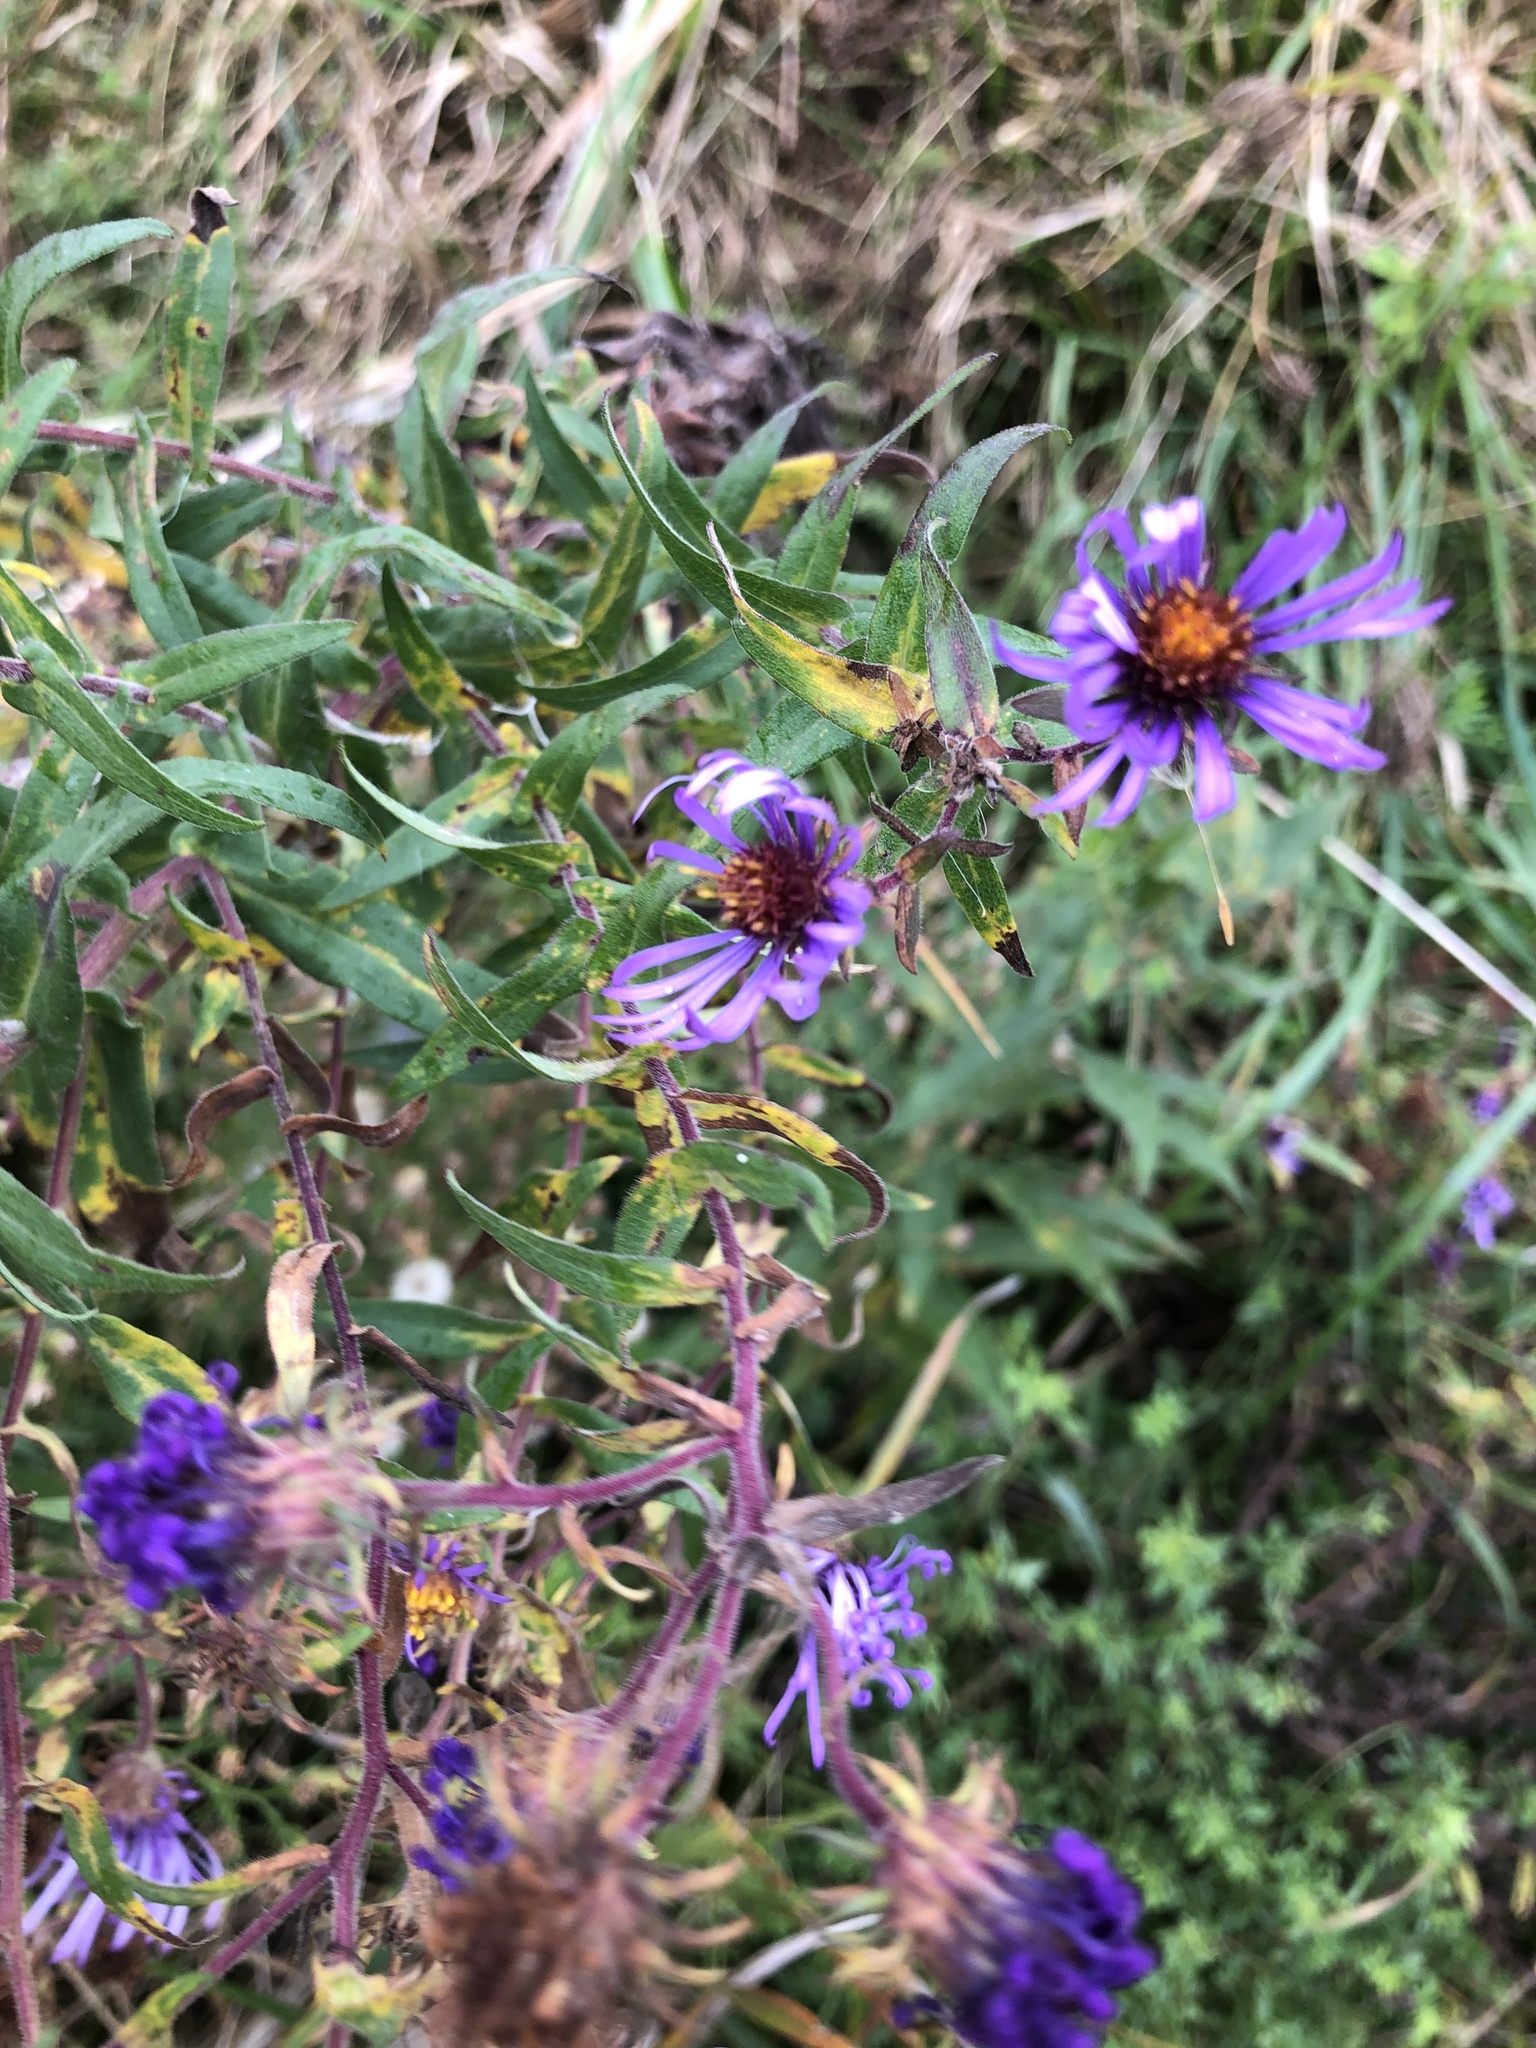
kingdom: Plantae
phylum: Tracheophyta
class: Magnoliopsida
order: Asterales
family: Asteraceae
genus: Symphyotrichum
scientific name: Symphyotrichum novae-angliae
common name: Michaelmas daisy
